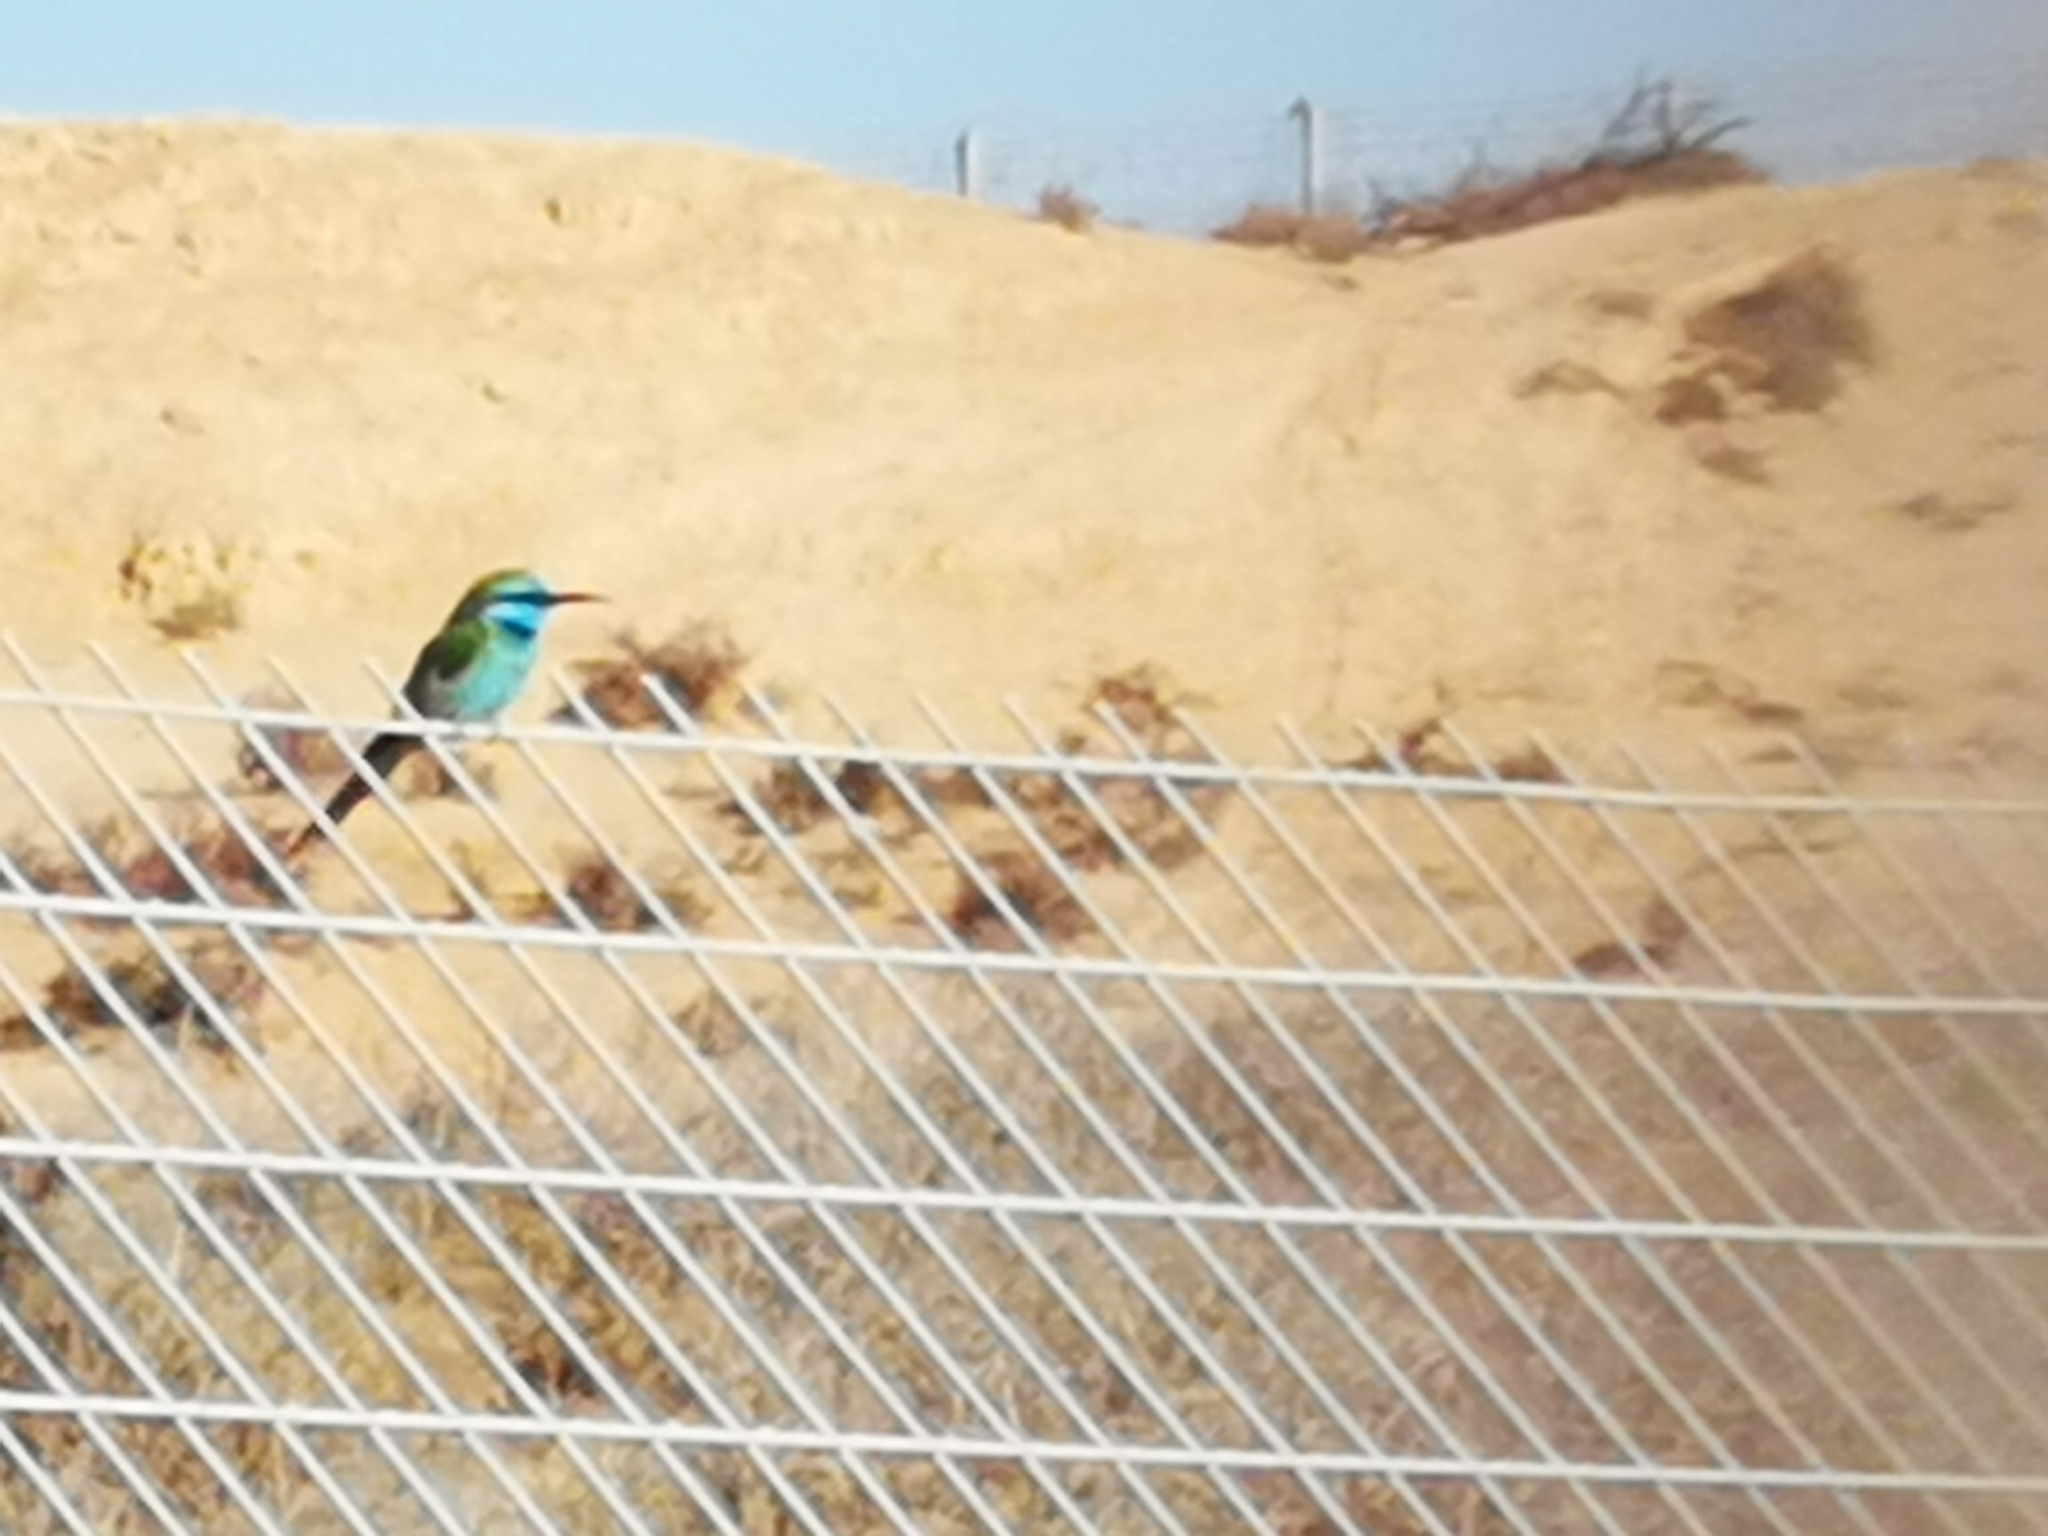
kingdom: Animalia
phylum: Chordata
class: Aves
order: Coraciiformes
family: Meropidae
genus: Merops
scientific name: Merops cyanophrys
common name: Arabian green bee-eater
